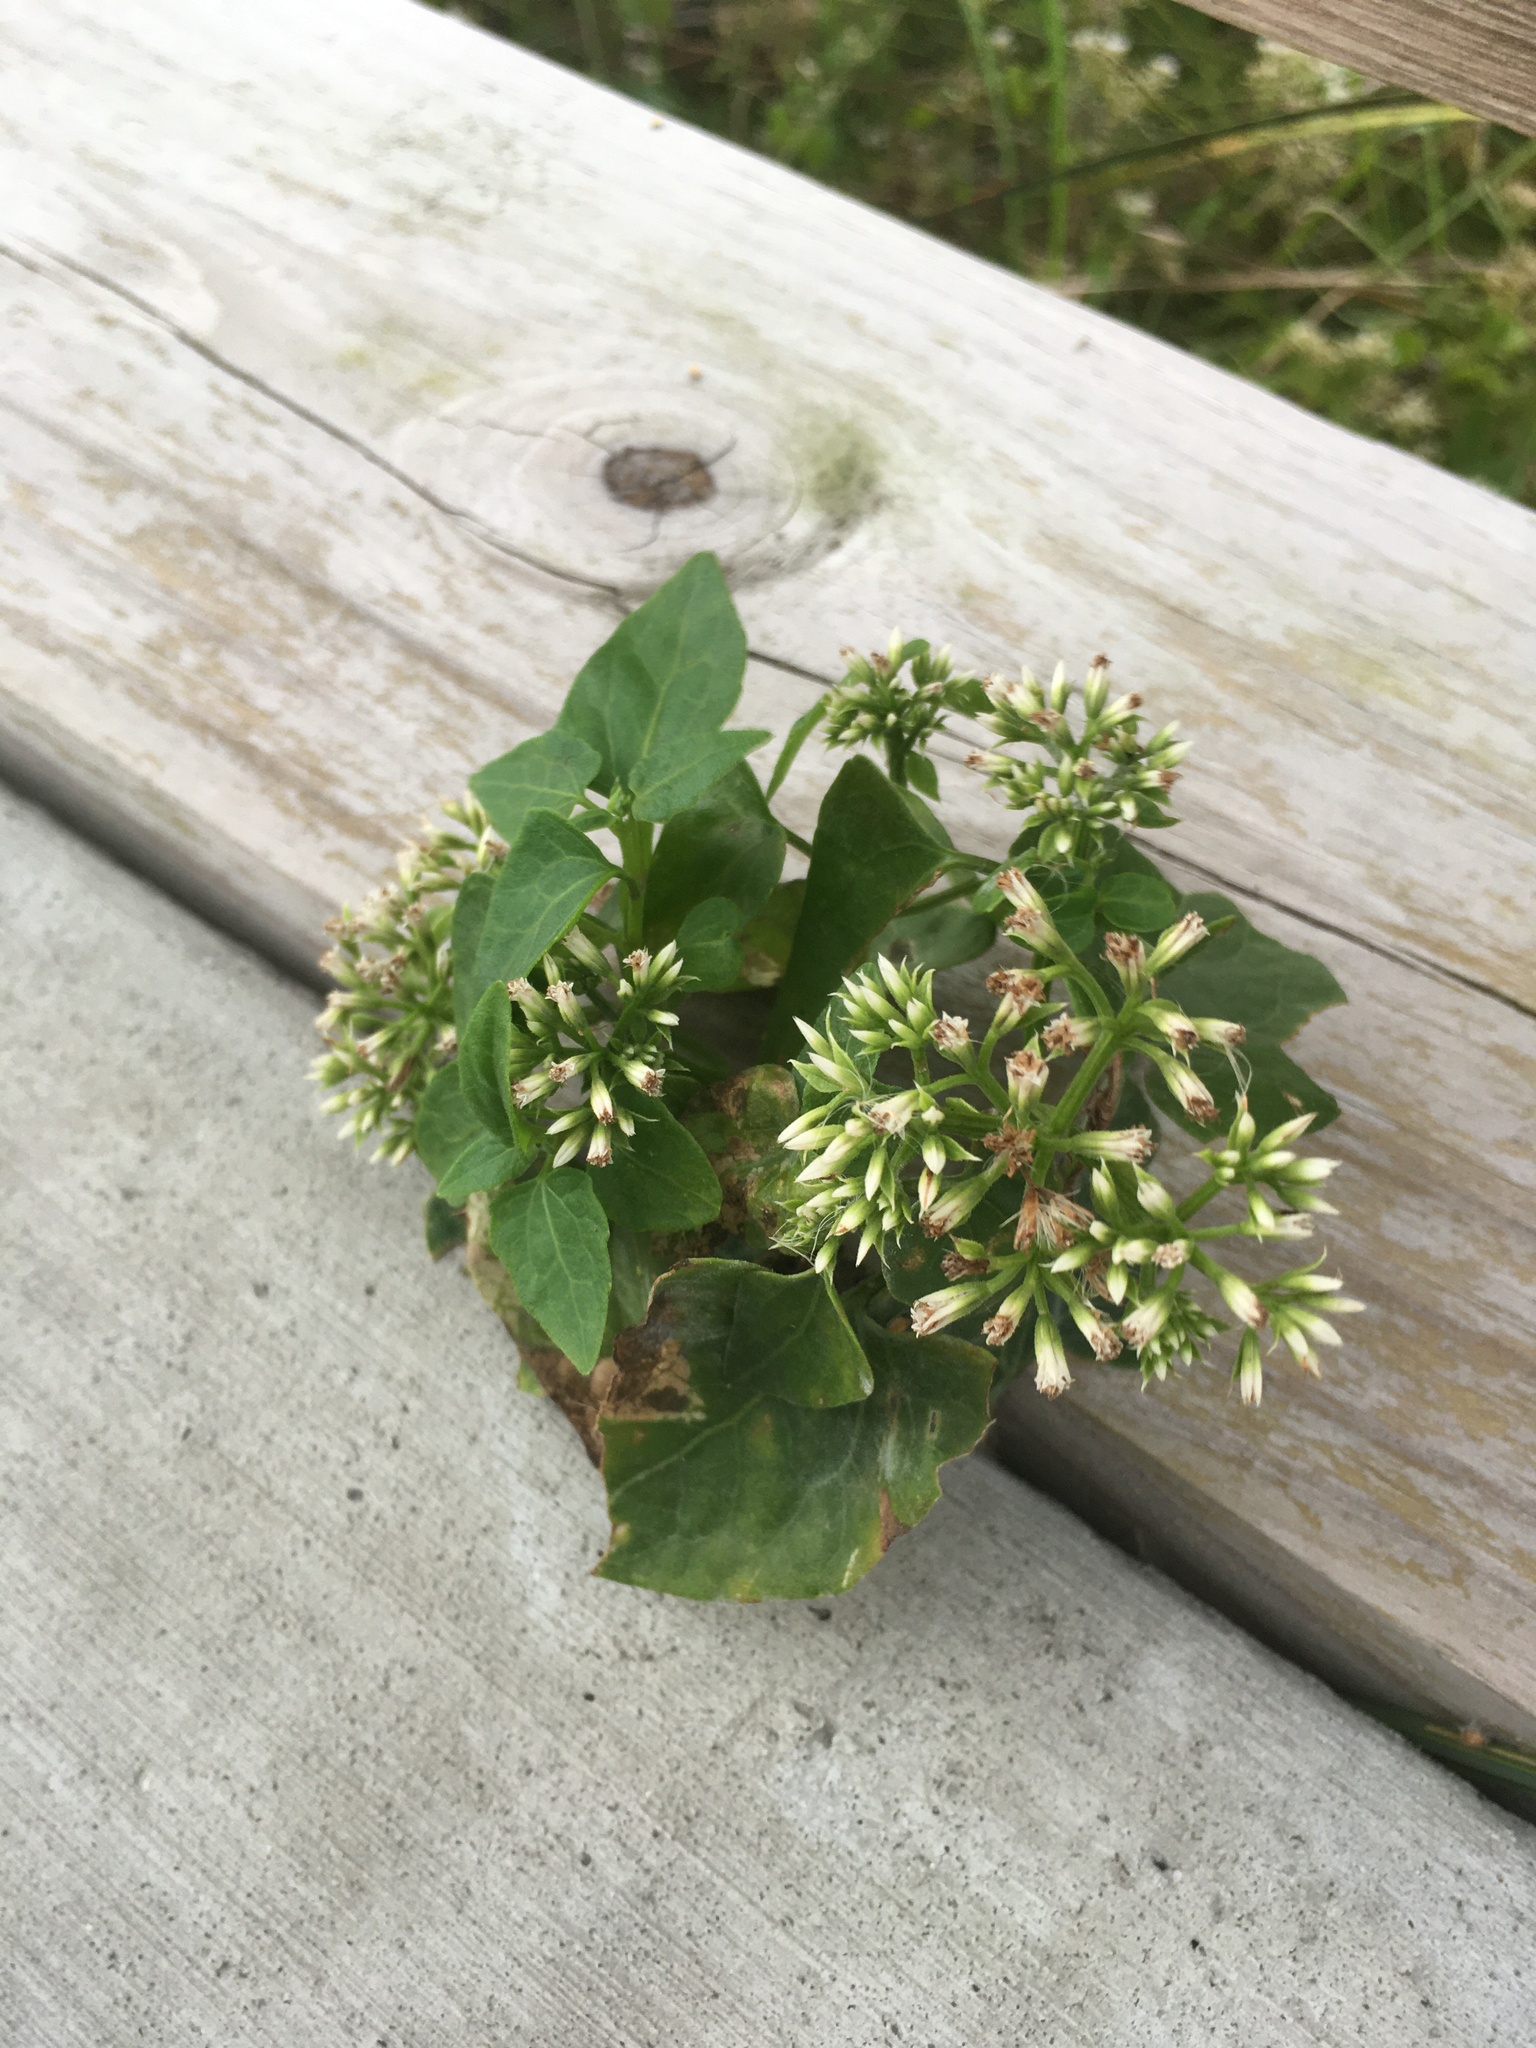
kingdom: Plantae
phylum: Tracheophyta
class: Magnoliopsida
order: Asterales
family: Asteraceae
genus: Mikania
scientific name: Mikania scandens
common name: Climbing hempvine
